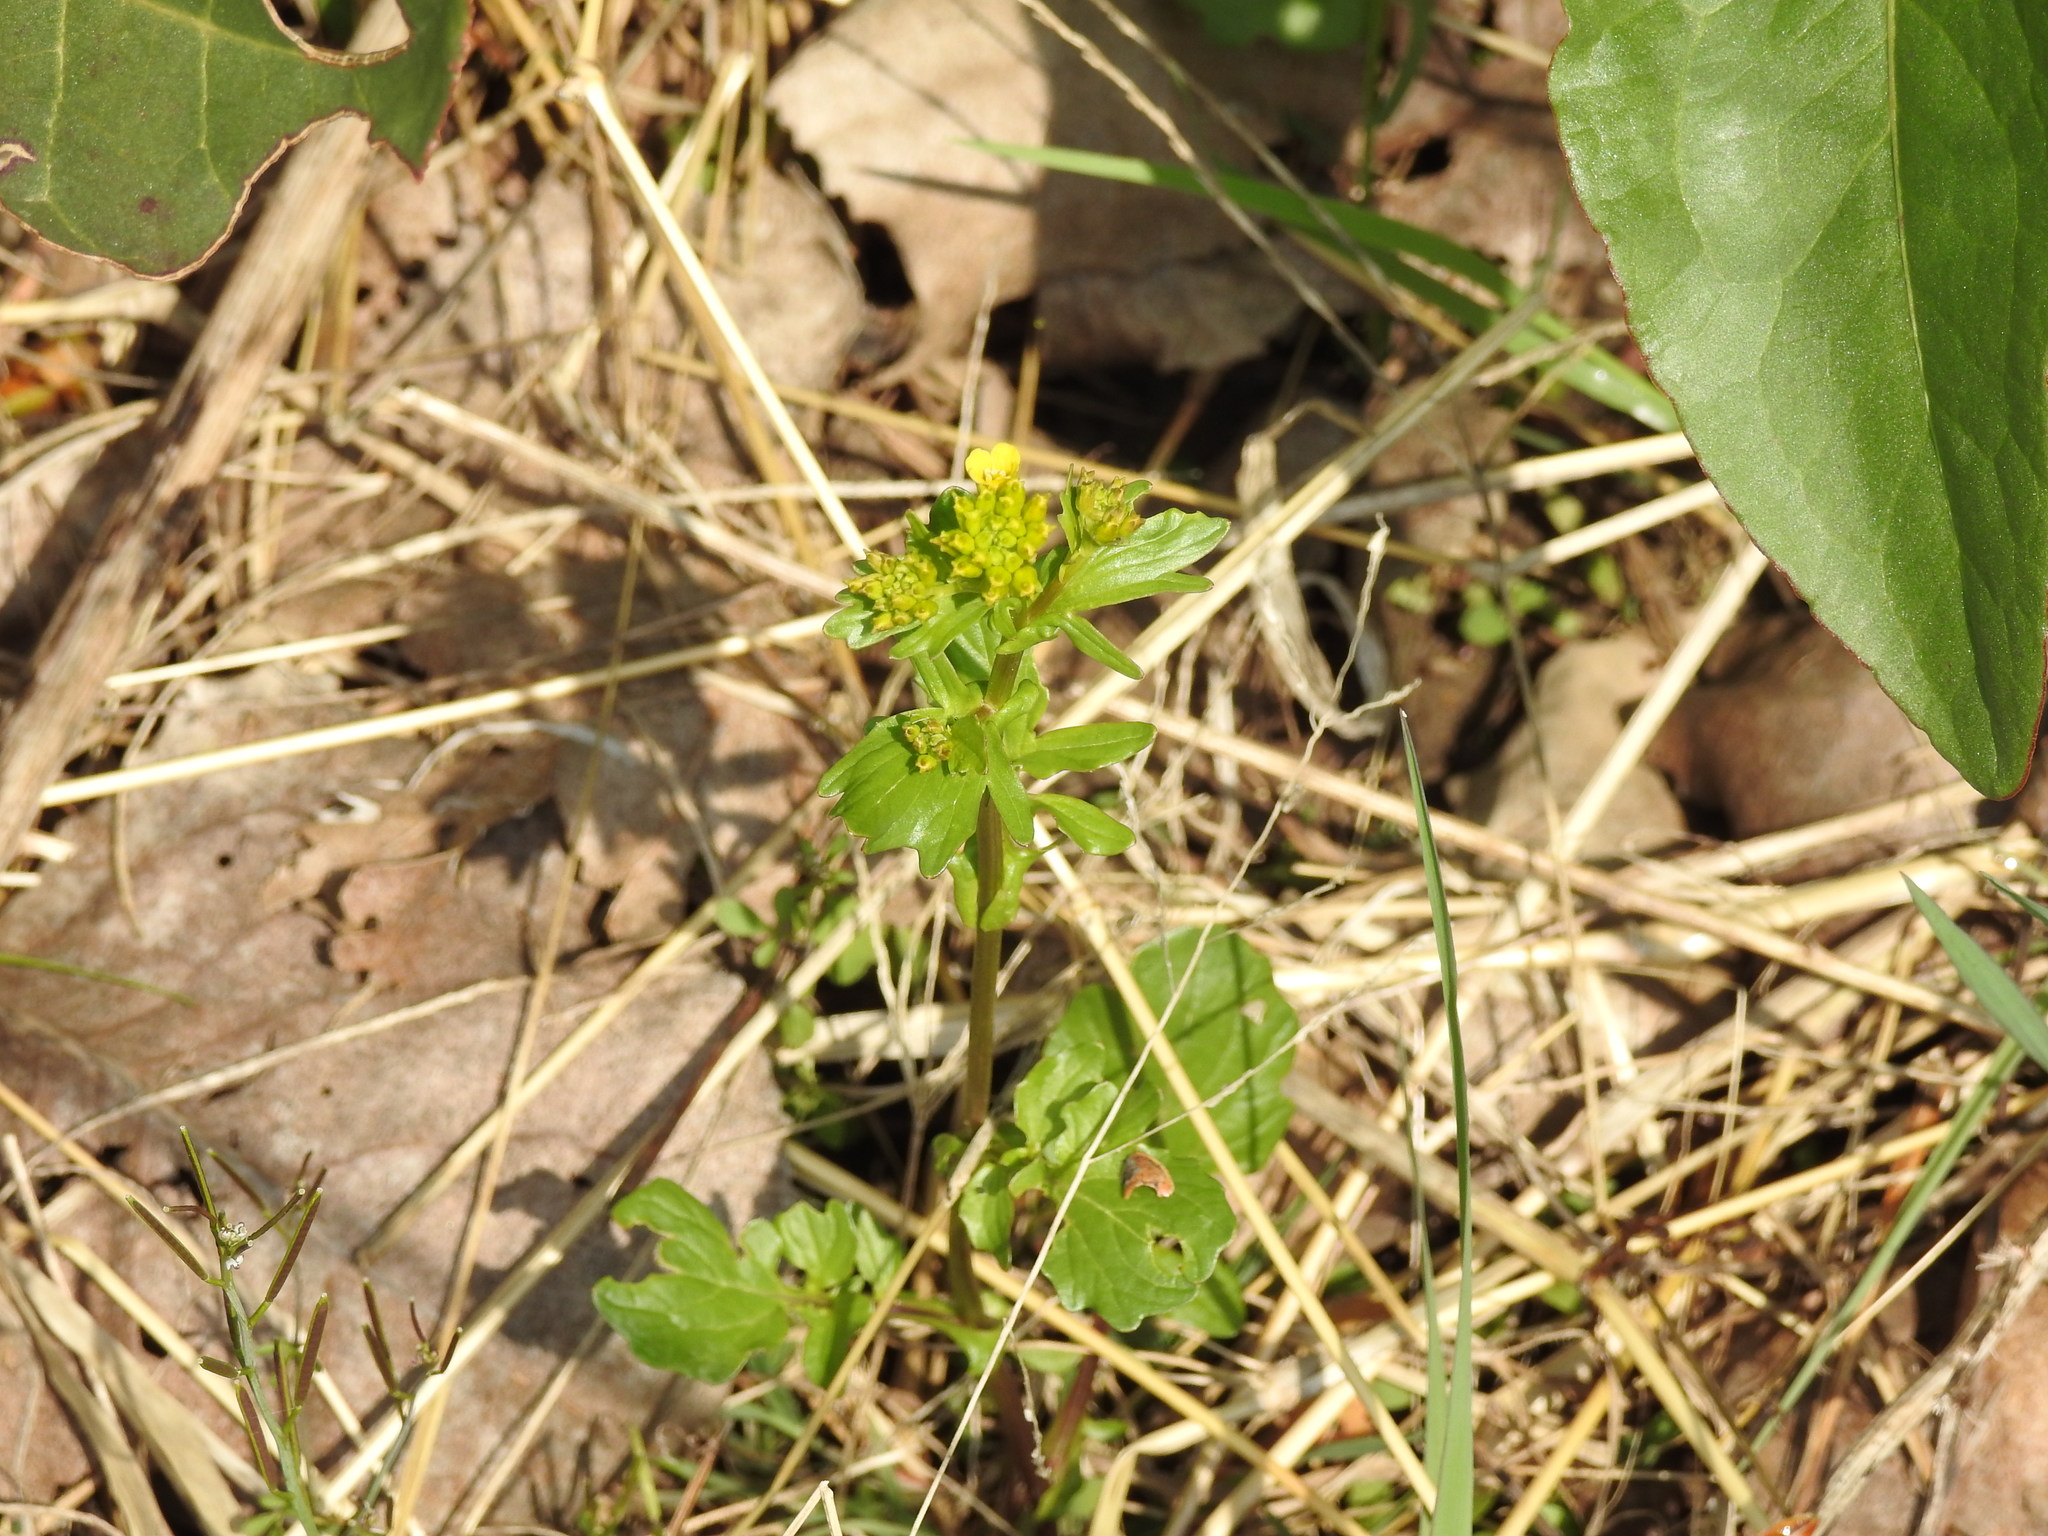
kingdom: Plantae
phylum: Tracheophyta
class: Magnoliopsida
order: Brassicales
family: Brassicaceae
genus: Barbarea
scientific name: Barbarea vulgaris
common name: Cressy-greens
